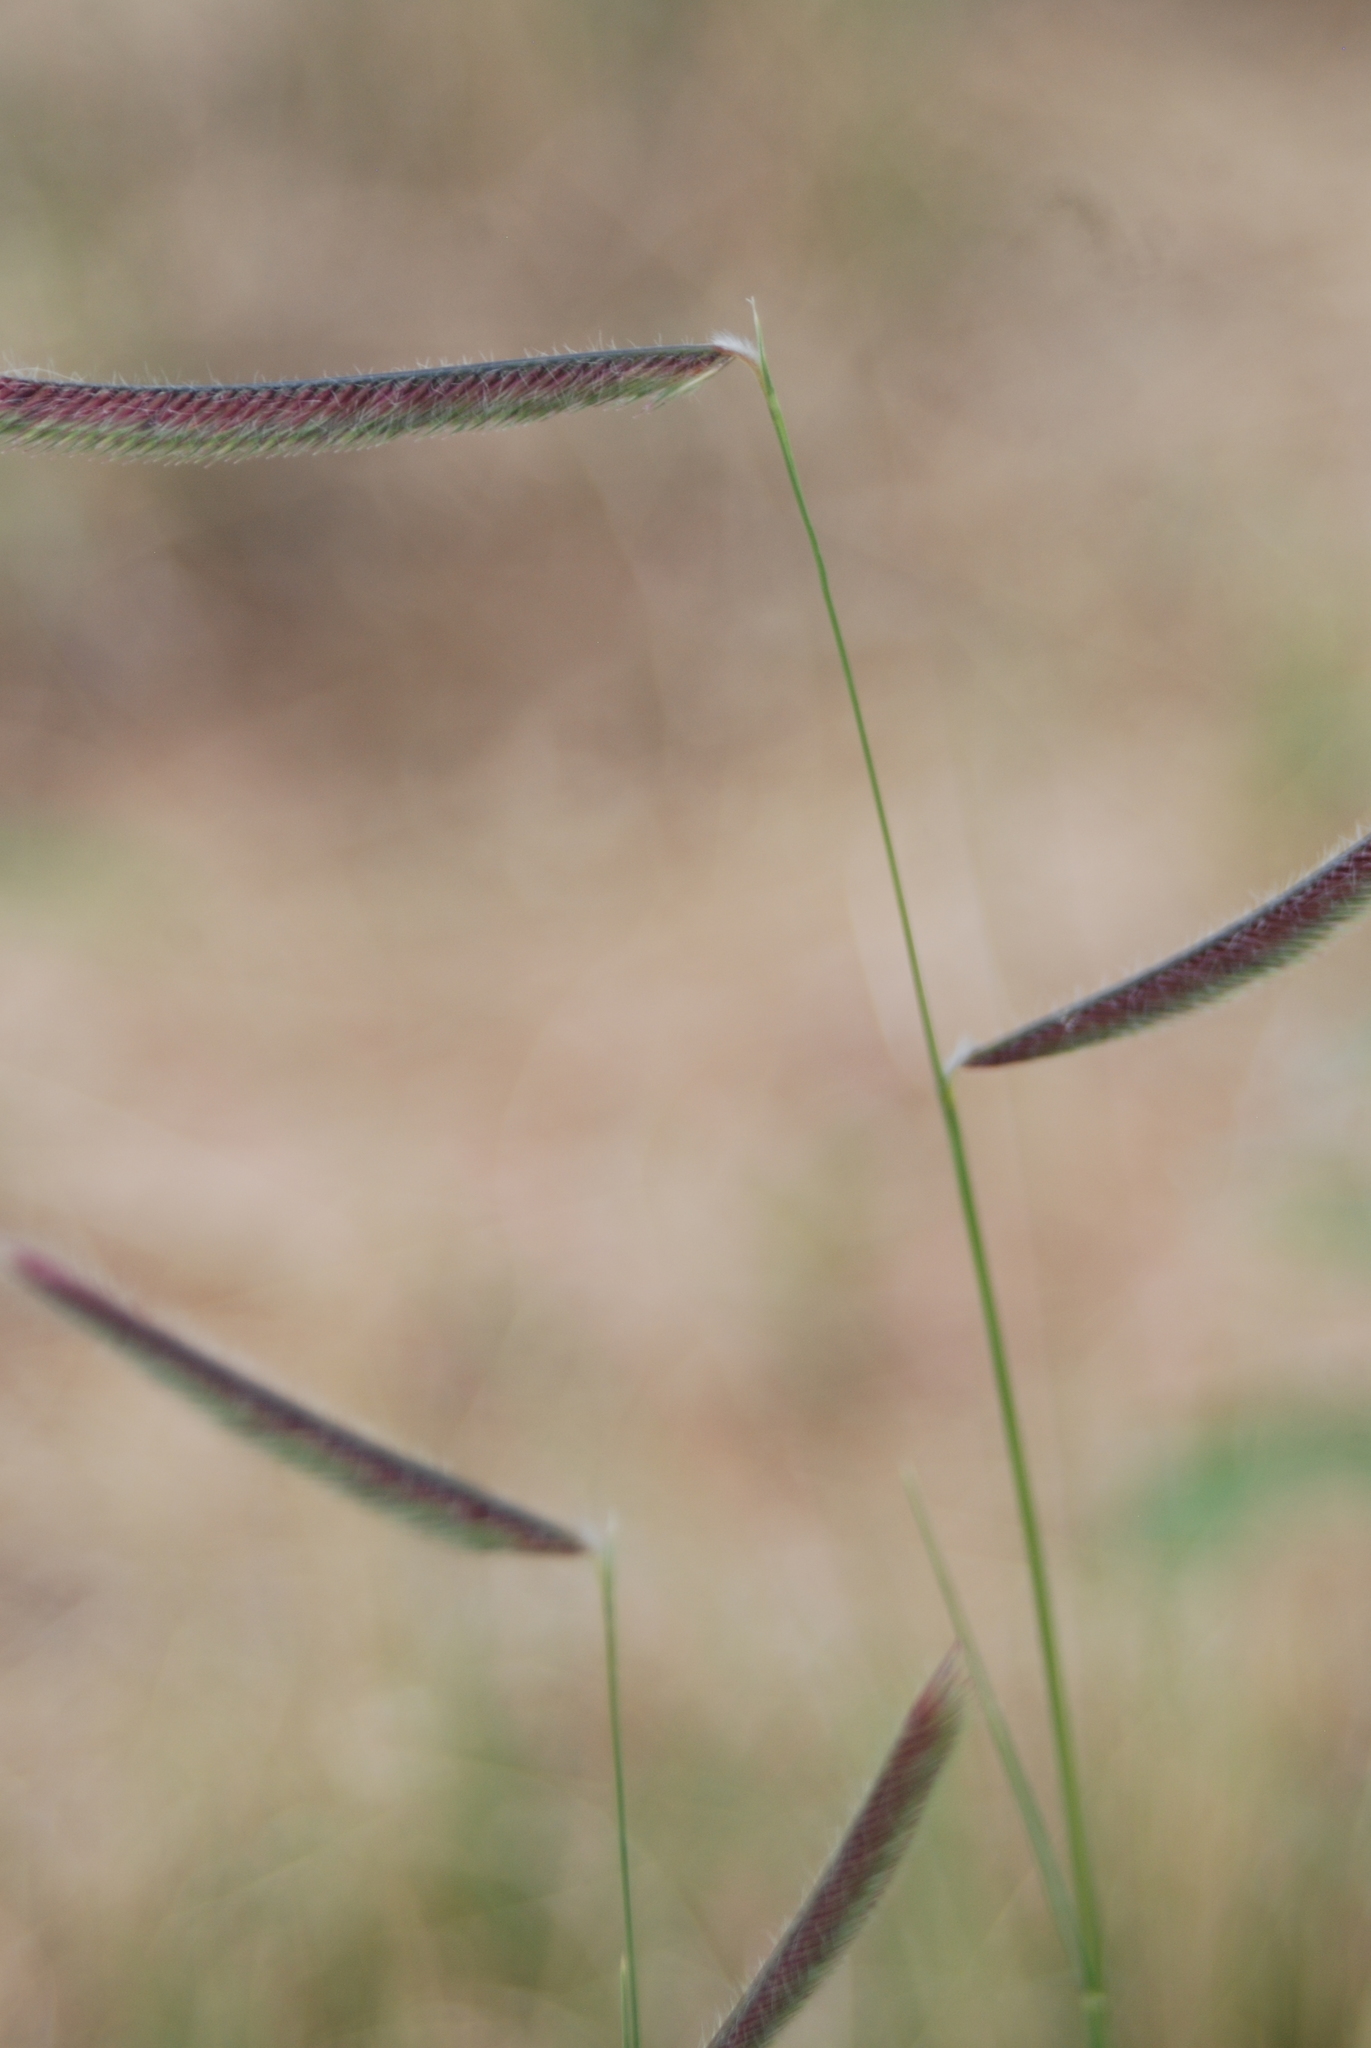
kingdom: Plantae
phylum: Tracheophyta
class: Liliopsida
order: Poales
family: Poaceae
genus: Bouteloua
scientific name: Bouteloua gracilis
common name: Blue grama
